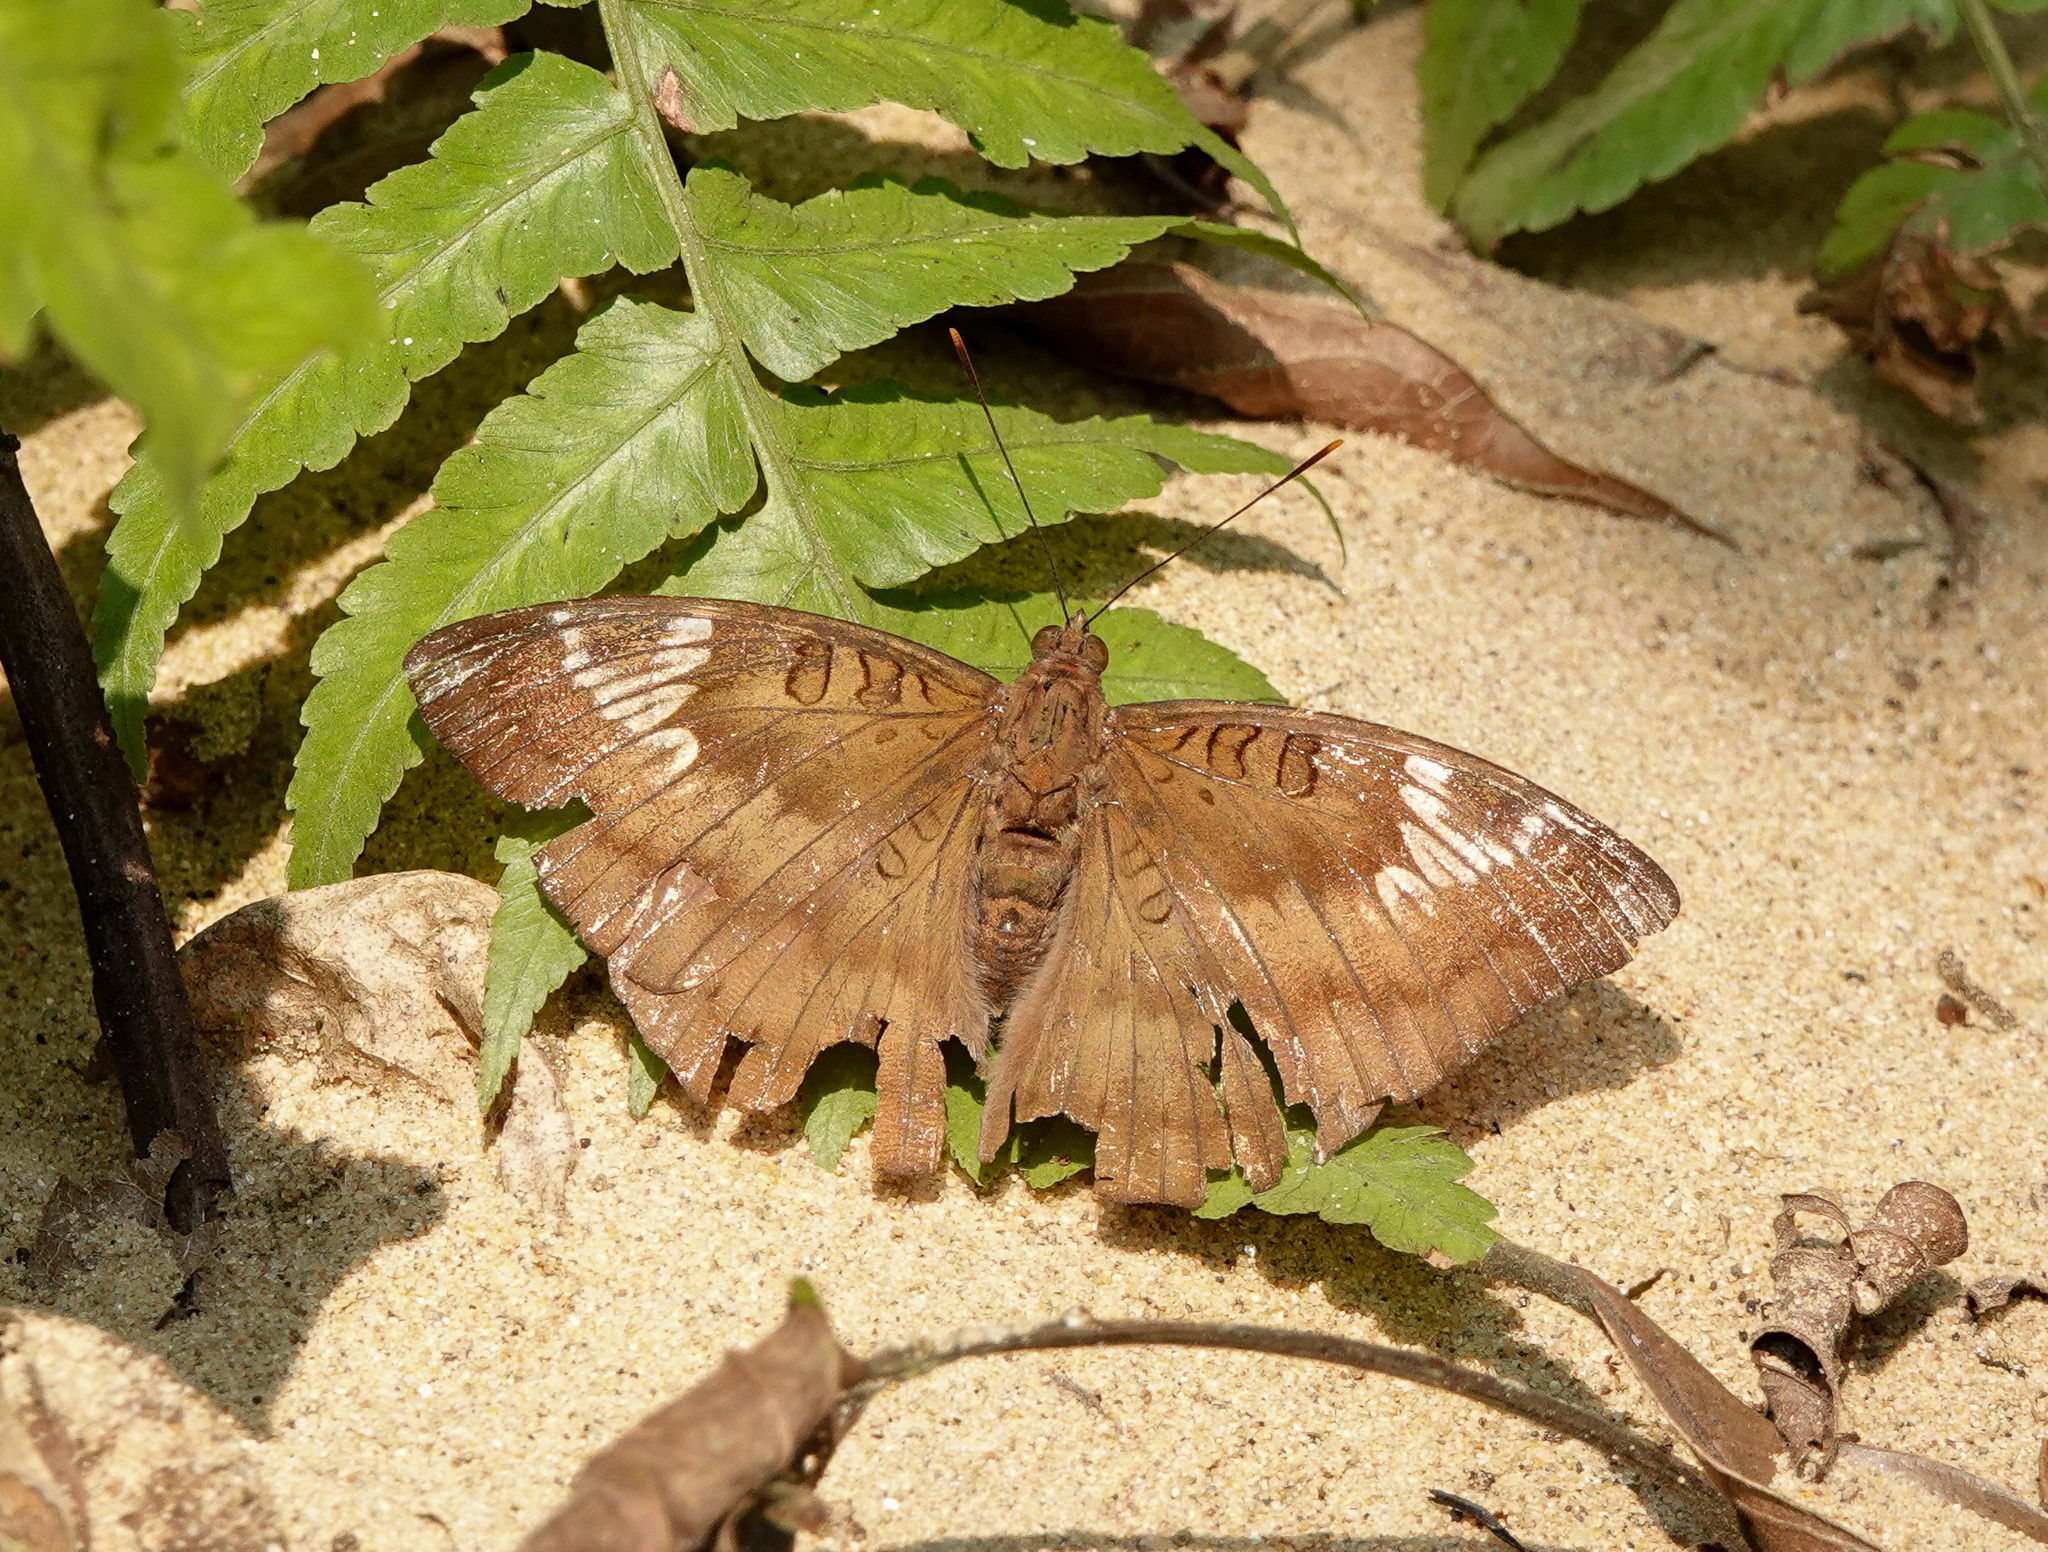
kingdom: Animalia
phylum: Arthropoda
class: Insecta
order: Lepidoptera
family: Nymphalidae
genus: Euthalia
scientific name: Euthalia aconthea
